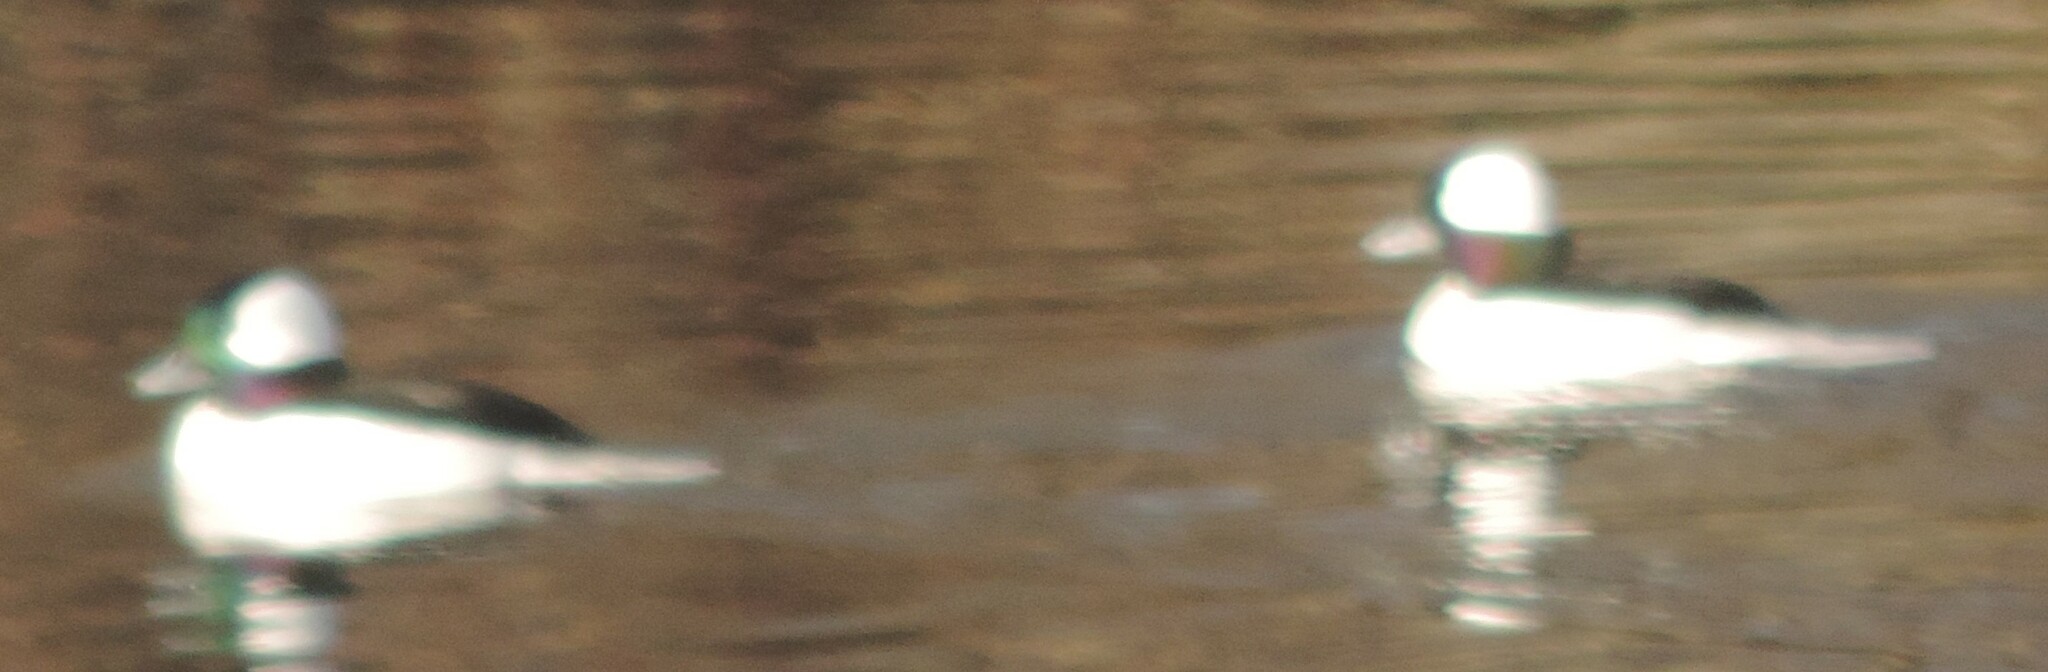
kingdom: Animalia
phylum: Chordata
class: Aves
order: Anseriformes
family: Anatidae
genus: Bucephala
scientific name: Bucephala albeola
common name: Bufflehead
